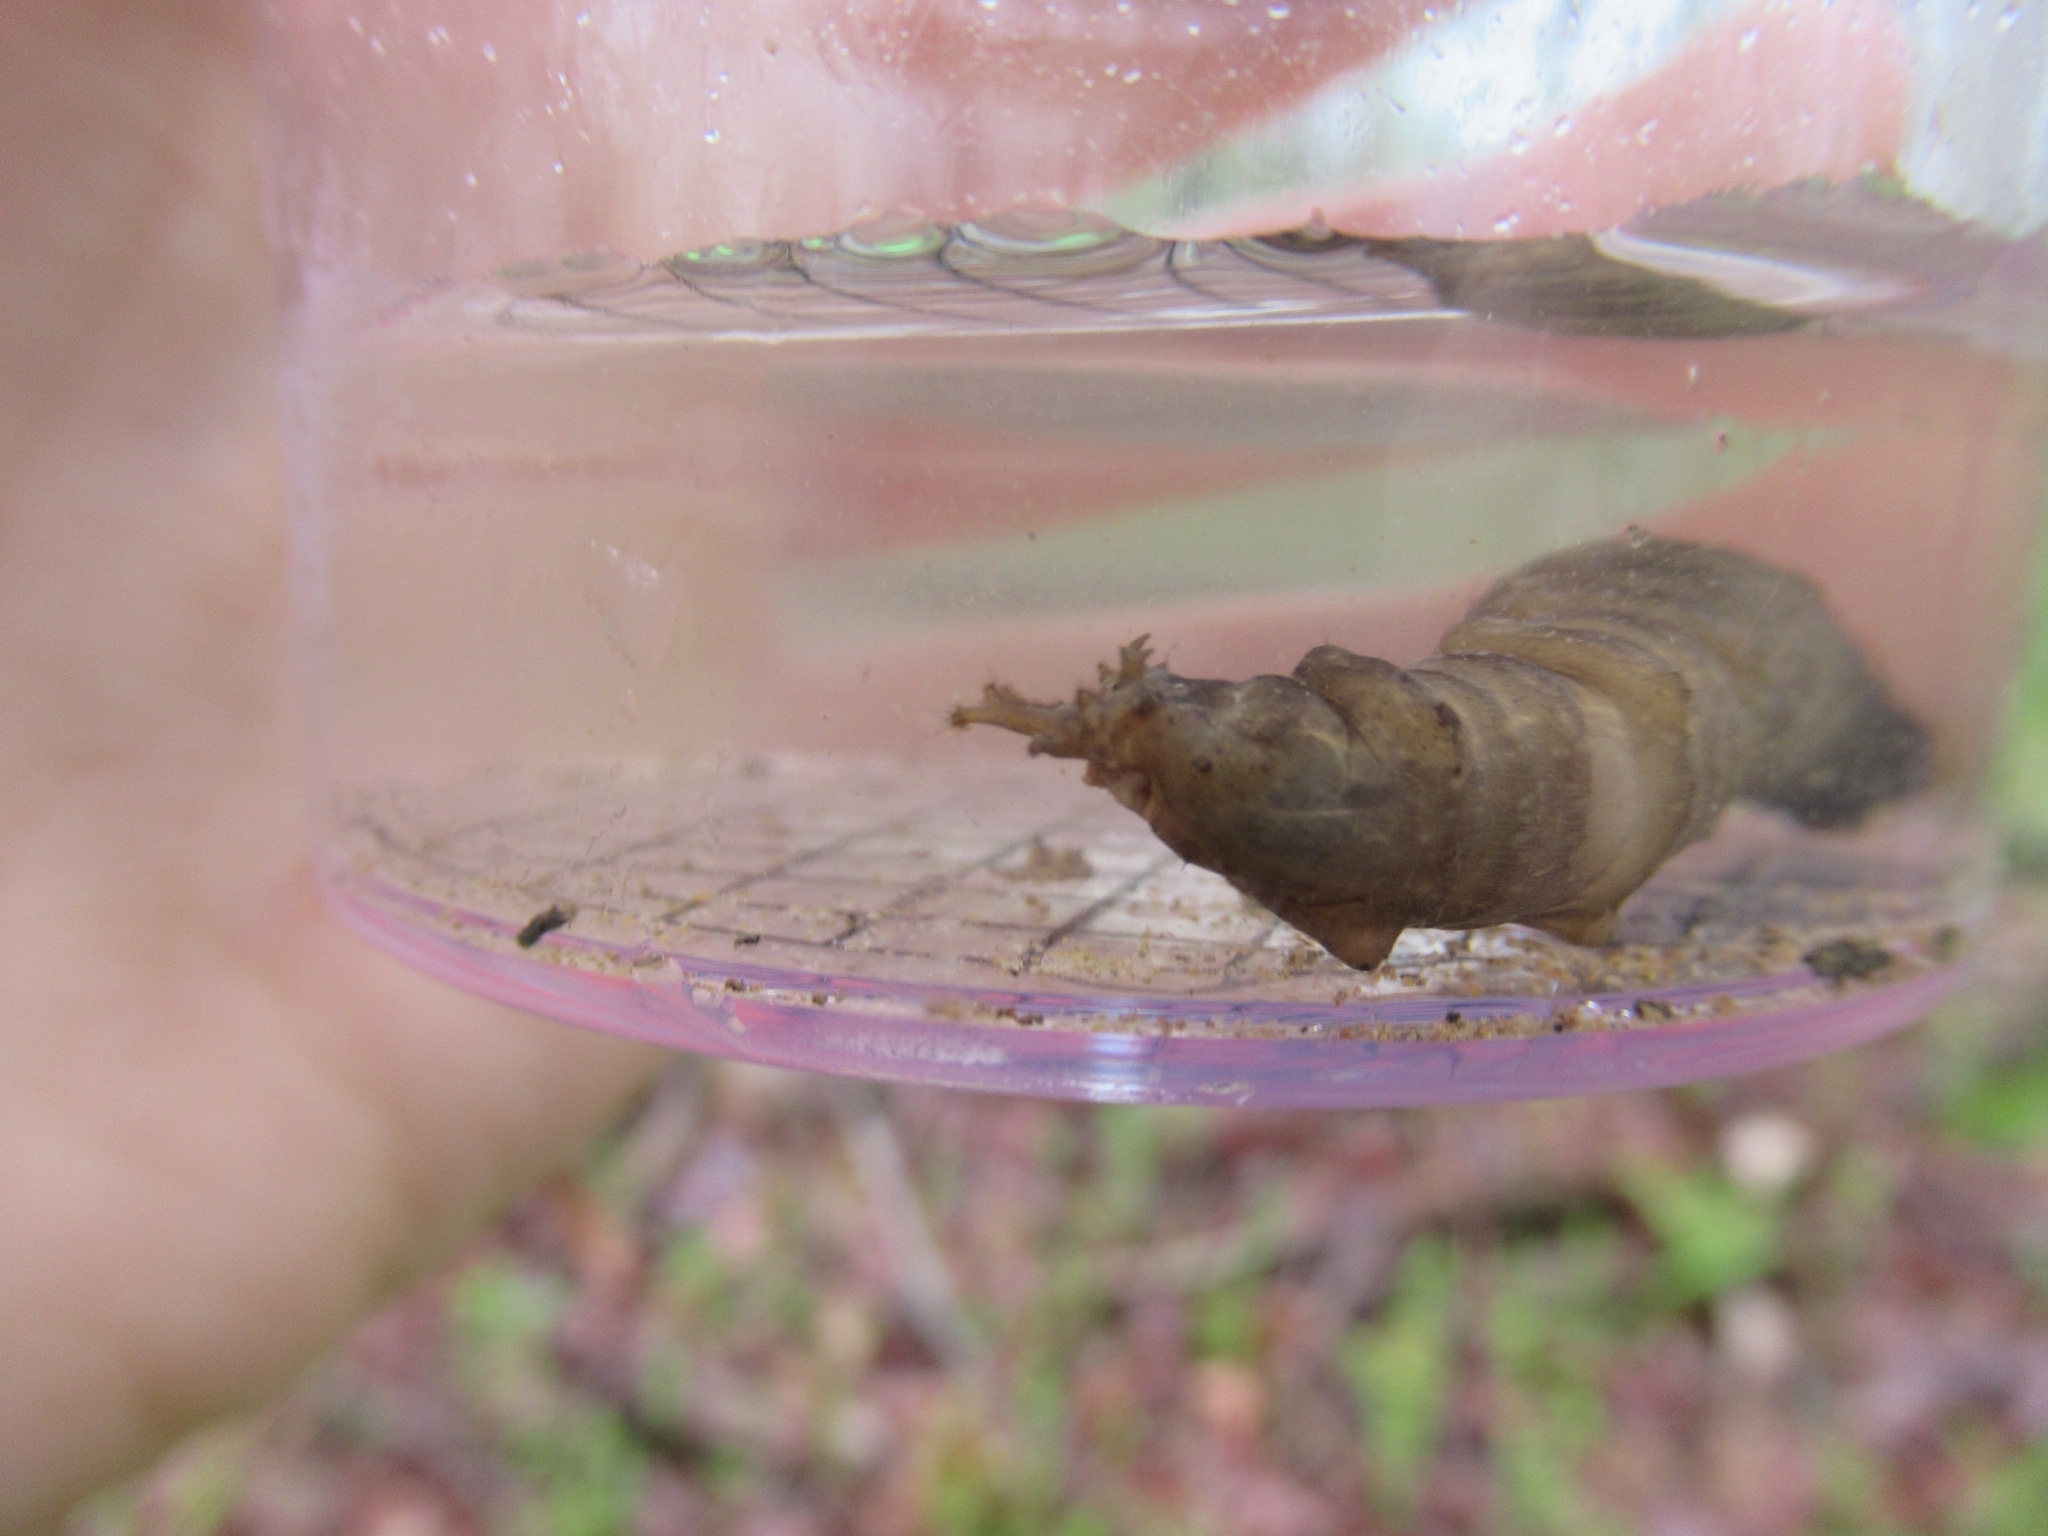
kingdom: Animalia
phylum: Arthropoda
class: Insecta
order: Diptera
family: Tipulidae
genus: Tipula
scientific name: Tipula abdominalis
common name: Giant crane fly
